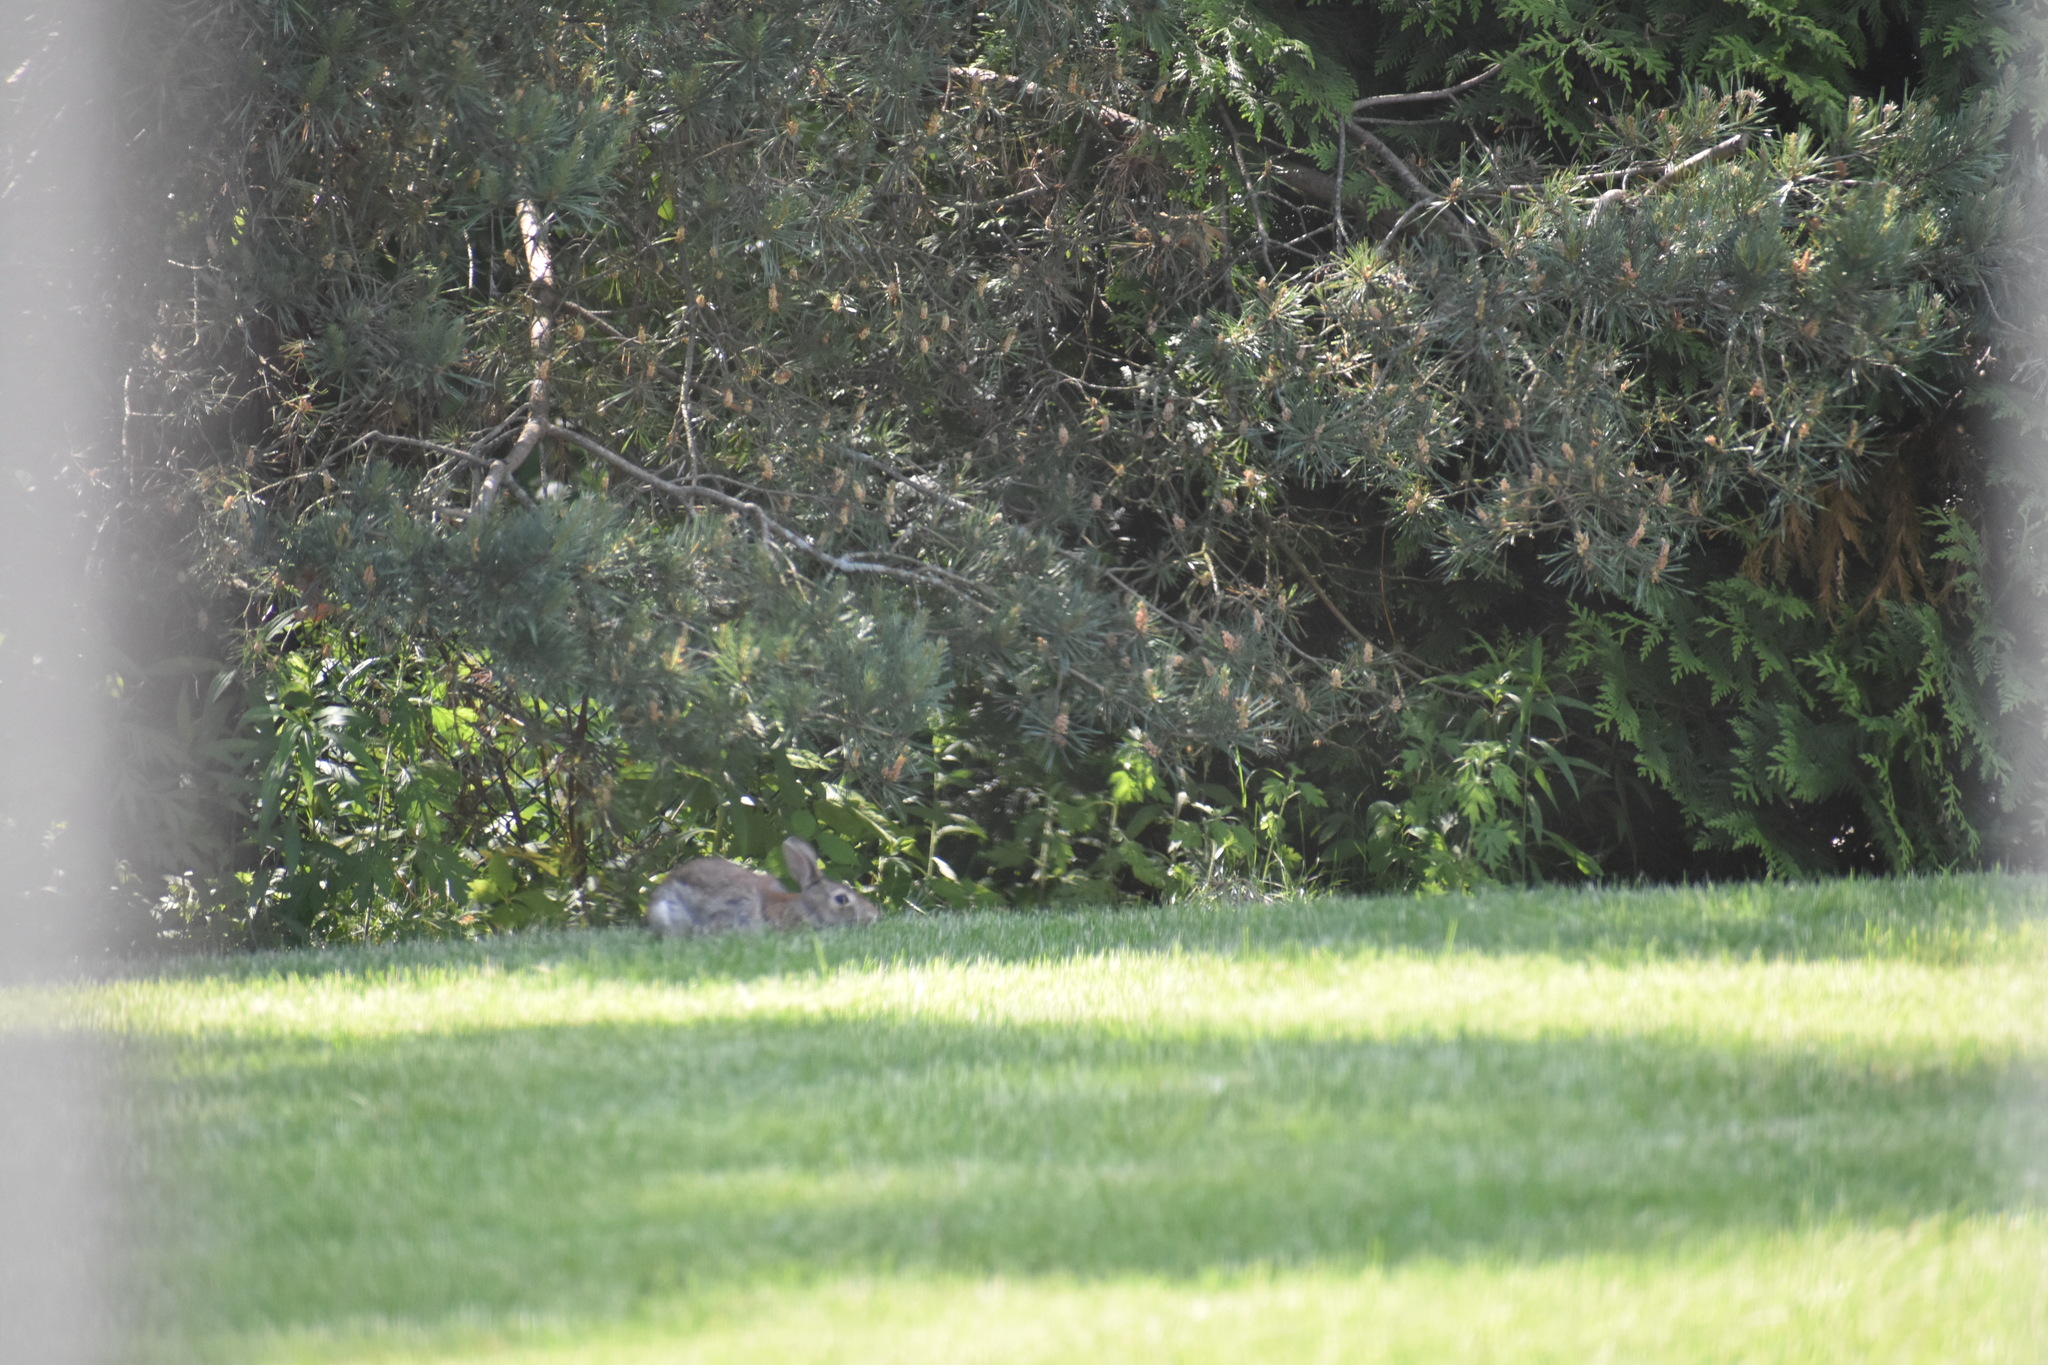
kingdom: Animalia
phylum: Chordata
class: Mammalia
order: Lagomorpha
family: Leporidae
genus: Sylvilagus
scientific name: Sylvilagus floridanus
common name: Eastern cottontail
